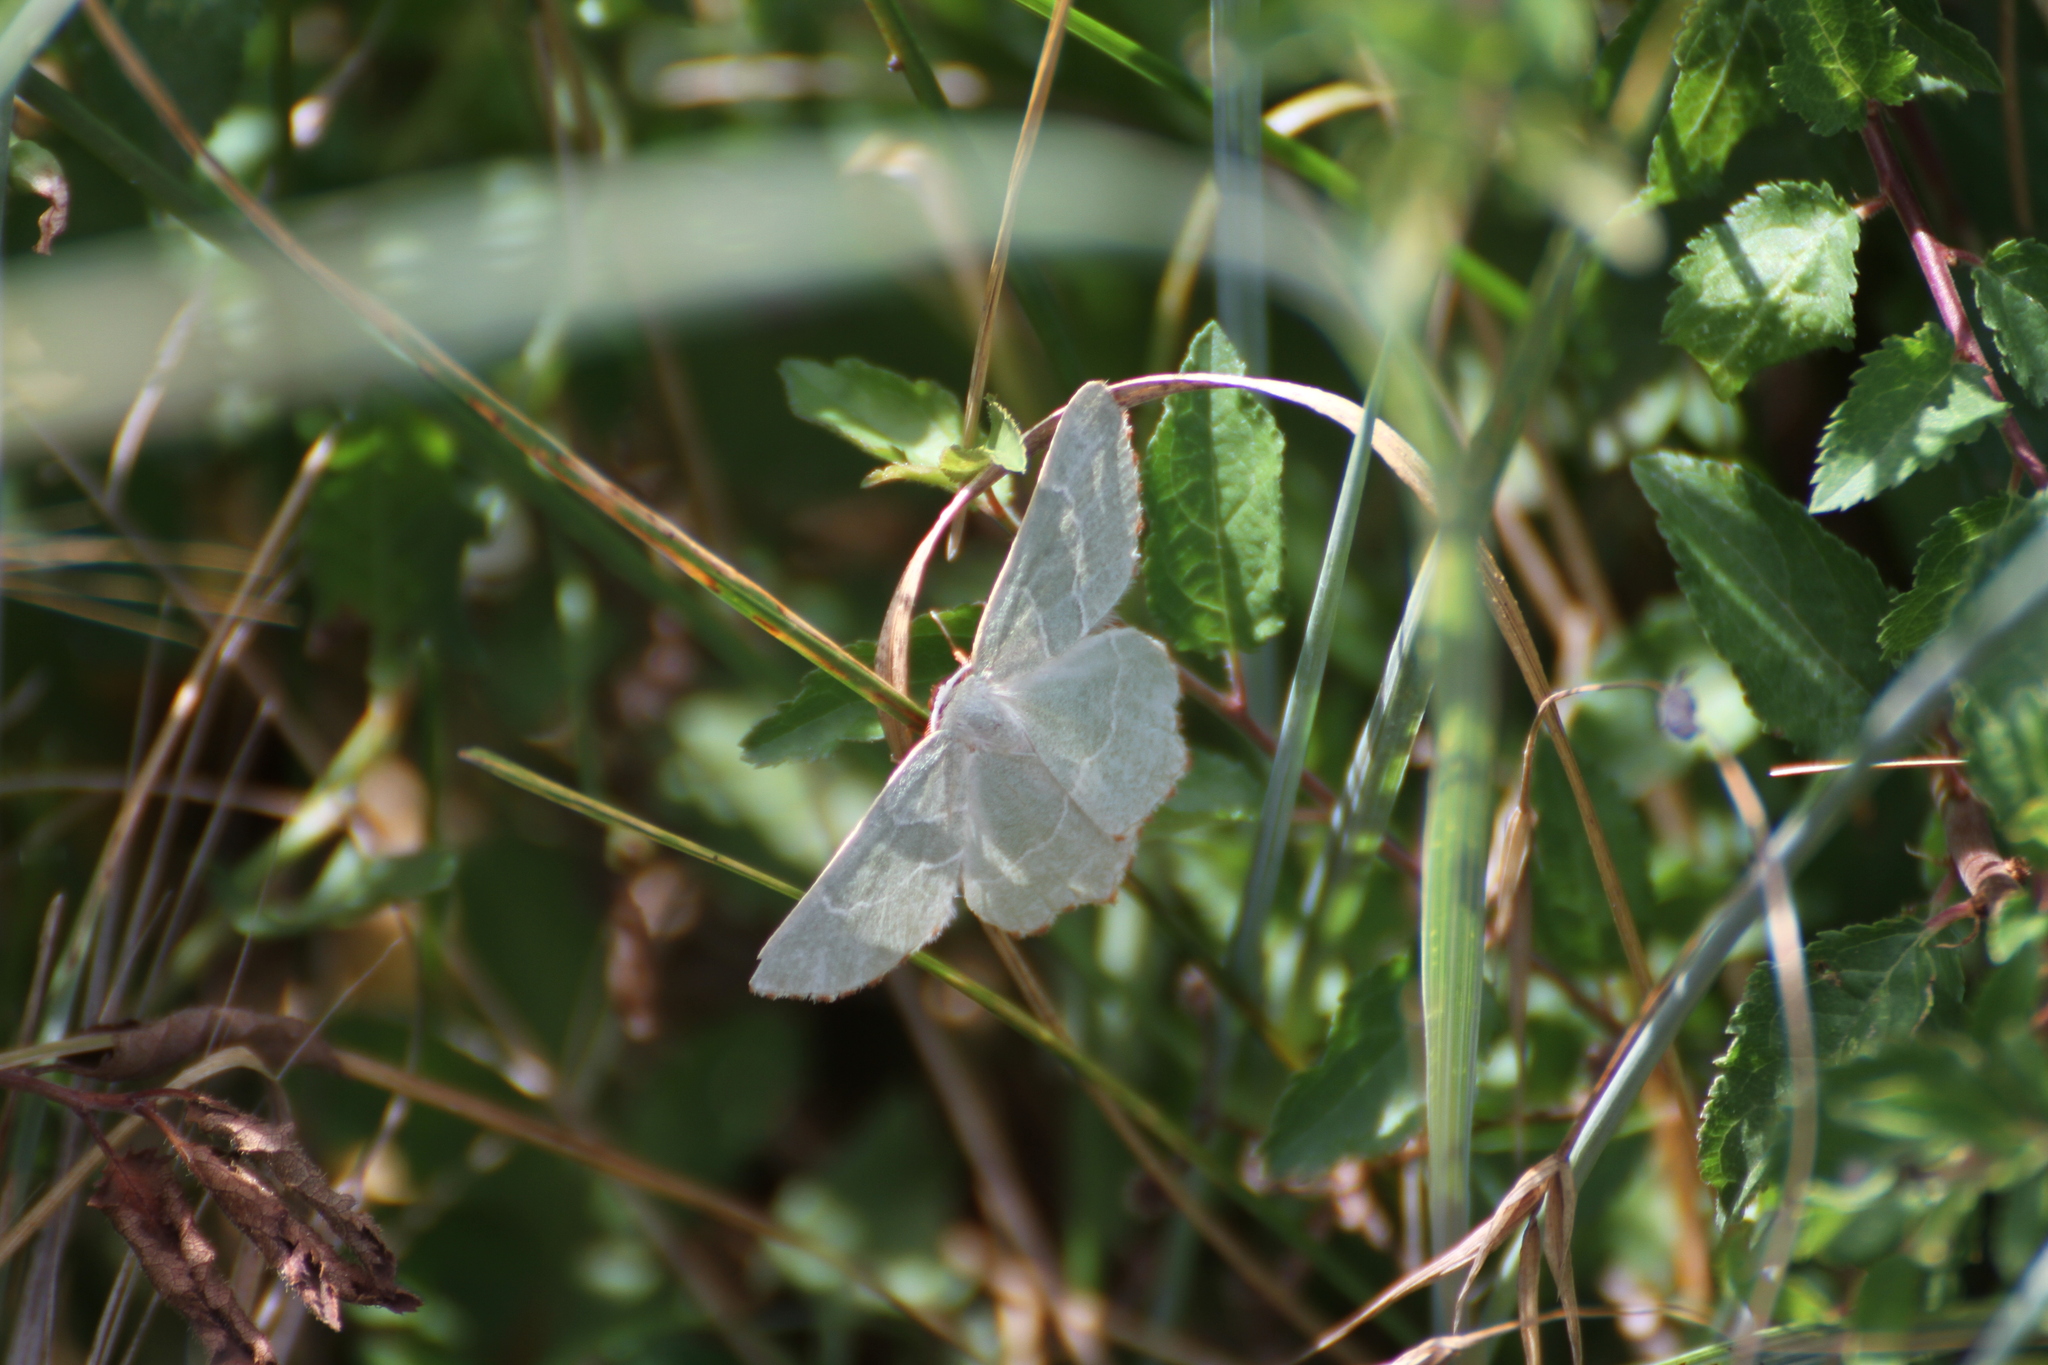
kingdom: Animalia
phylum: Arthropoda
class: Insecta
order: Lepidoptera
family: Geometridae
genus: Thalera
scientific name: Thalera fimbrialis
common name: Sussex emerald
